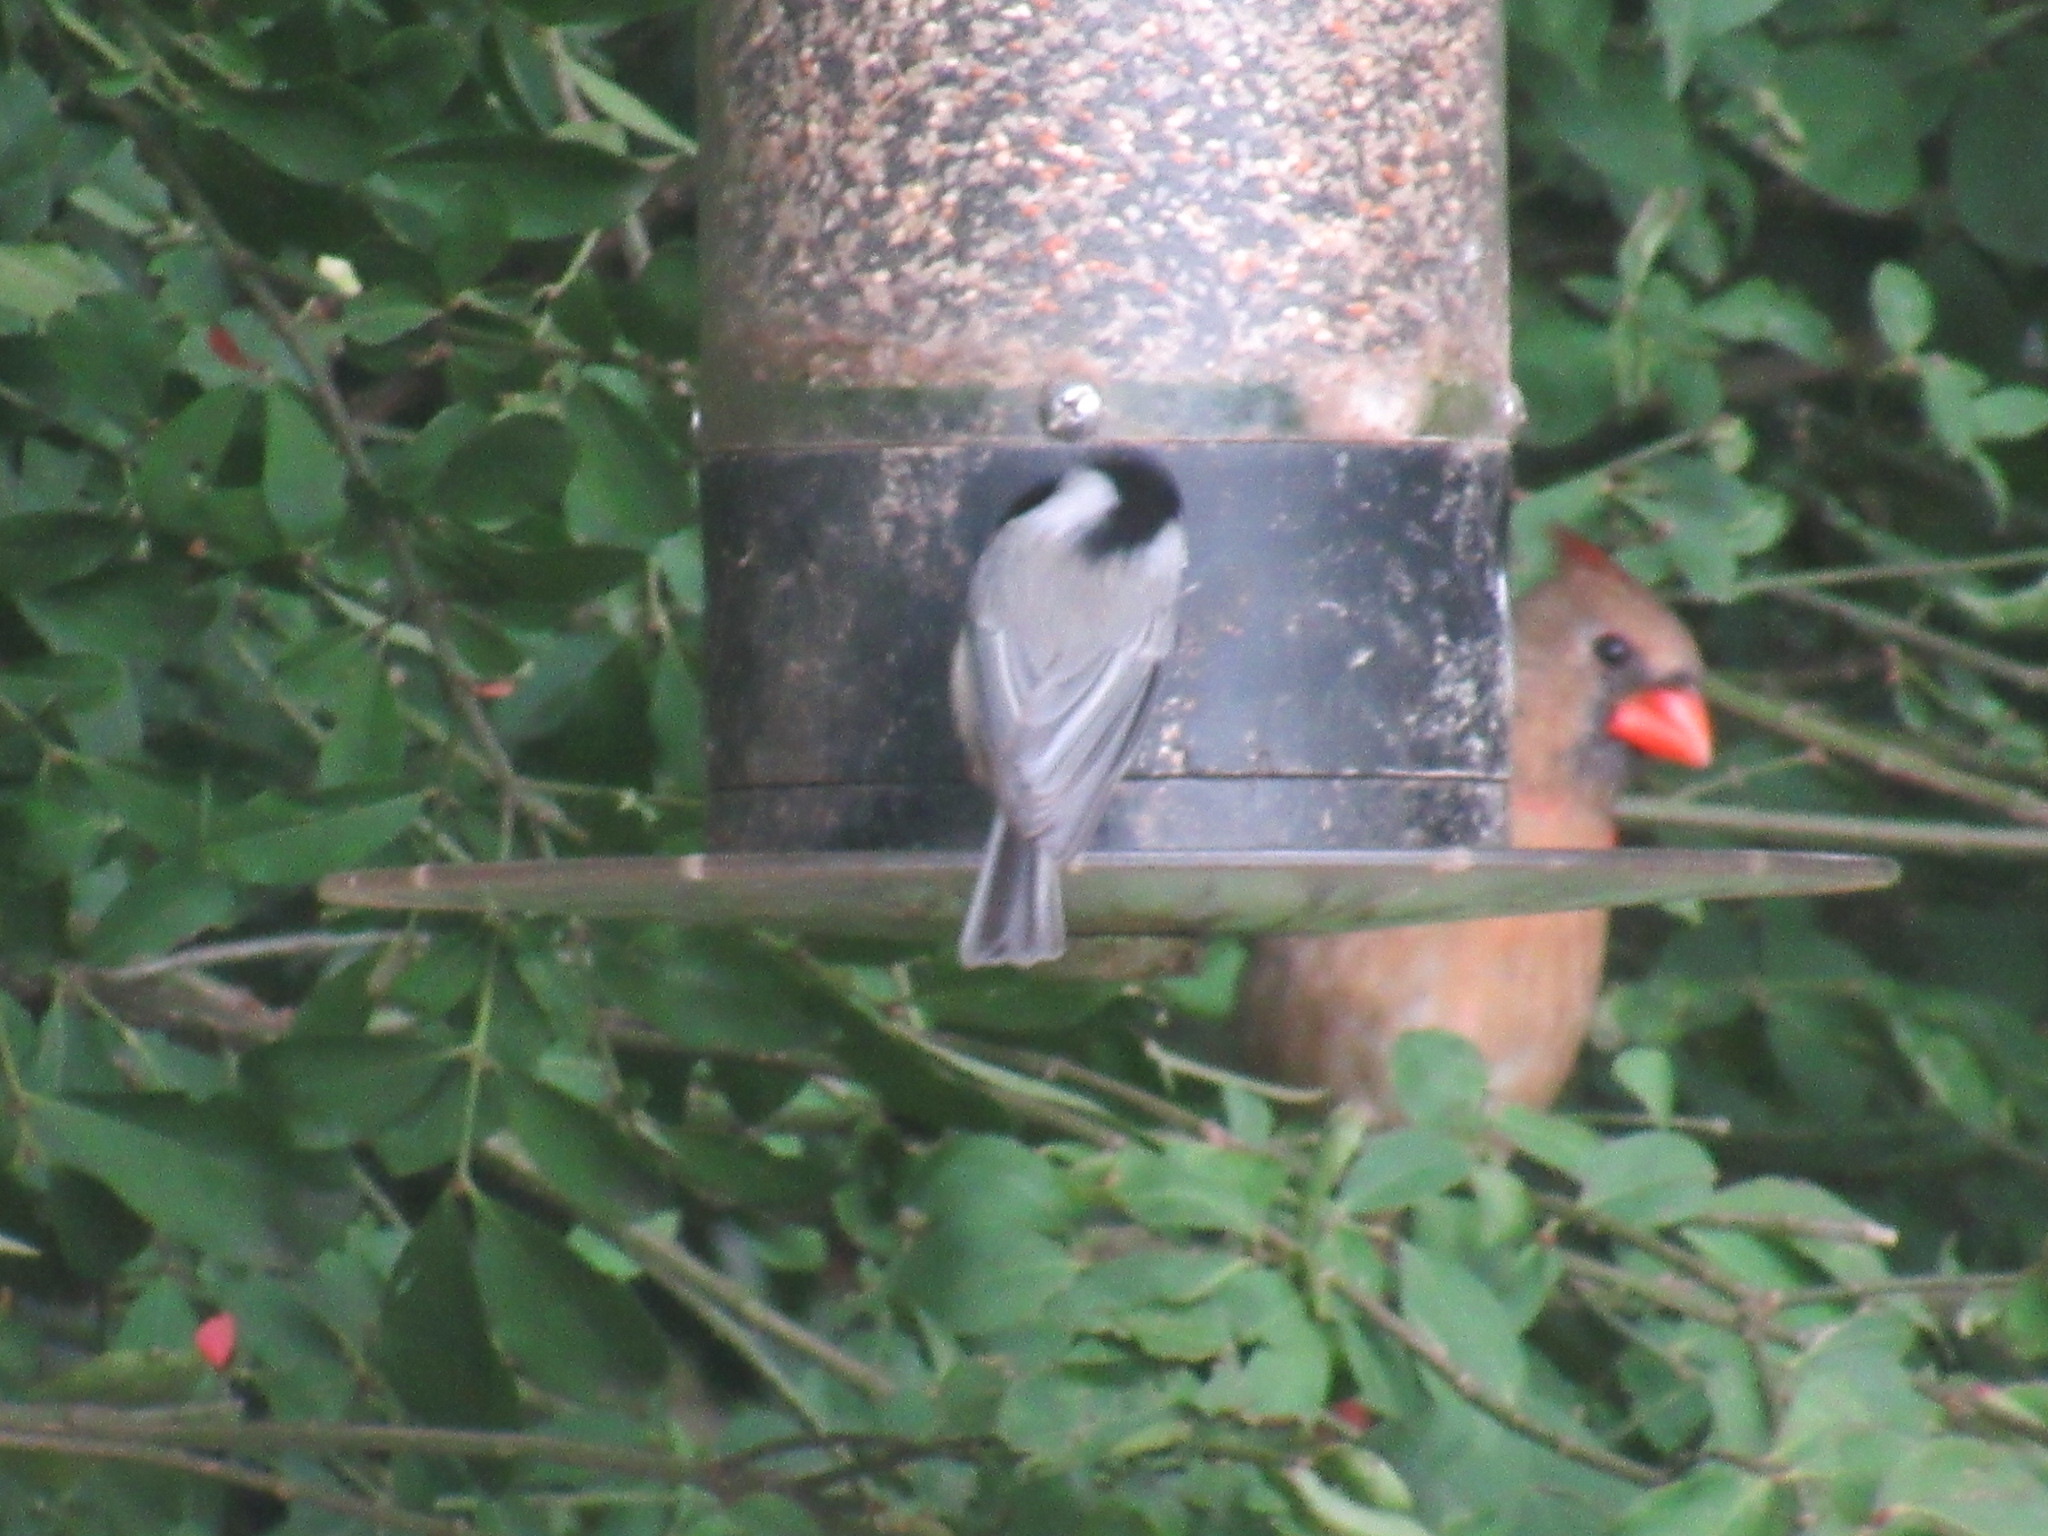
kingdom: Animalia
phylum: Chordata
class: Aves
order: Passeriformes
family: Cardinalidae
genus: Cardinalis
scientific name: Cardinalis cardinalis
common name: Northern cardinal
